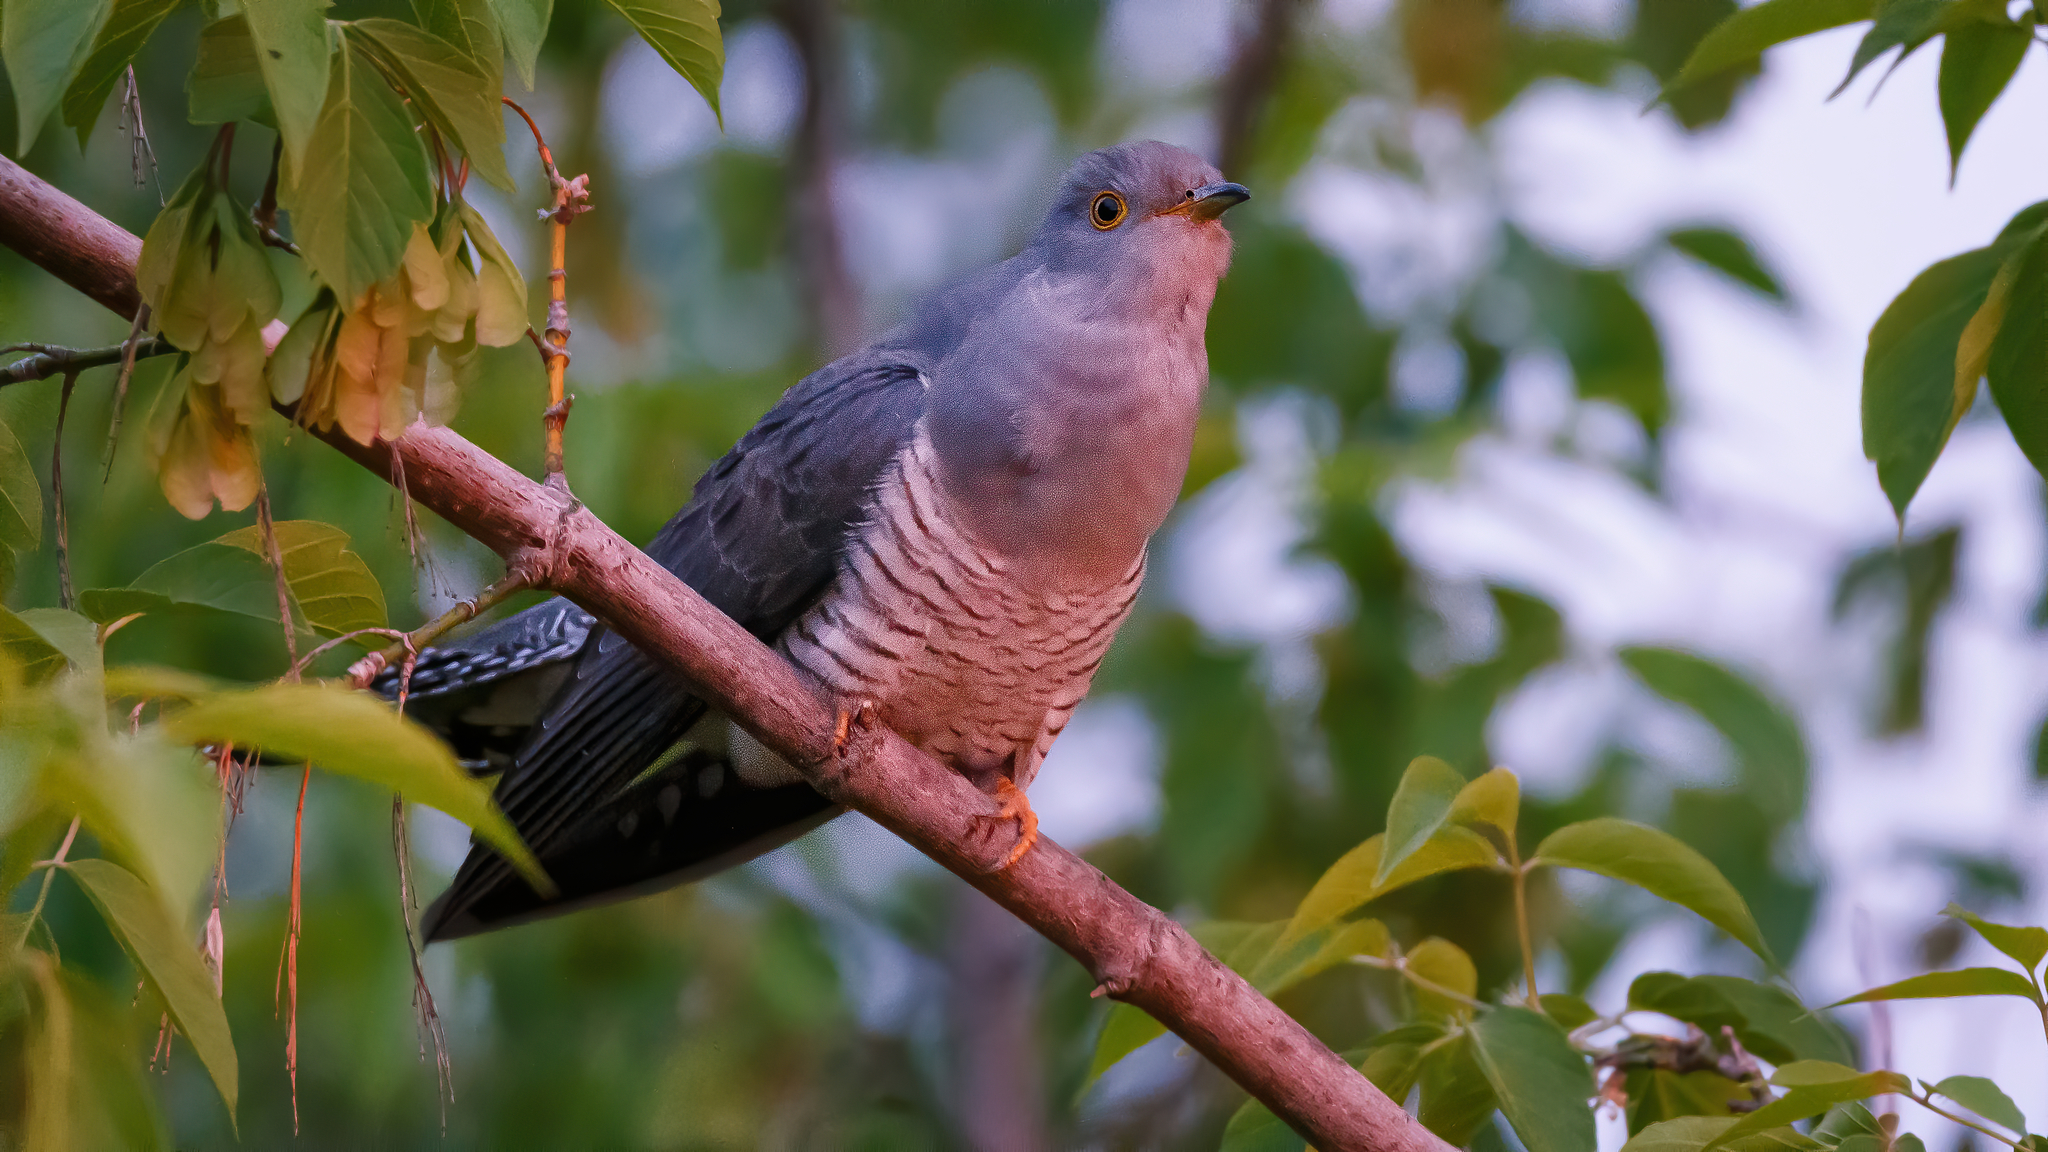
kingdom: Animalia
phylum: Chordata
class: Aves
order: Cuculiformes
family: Cuculidae
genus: Cuculus
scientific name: Cuculus canorus
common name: Common cuckoo
